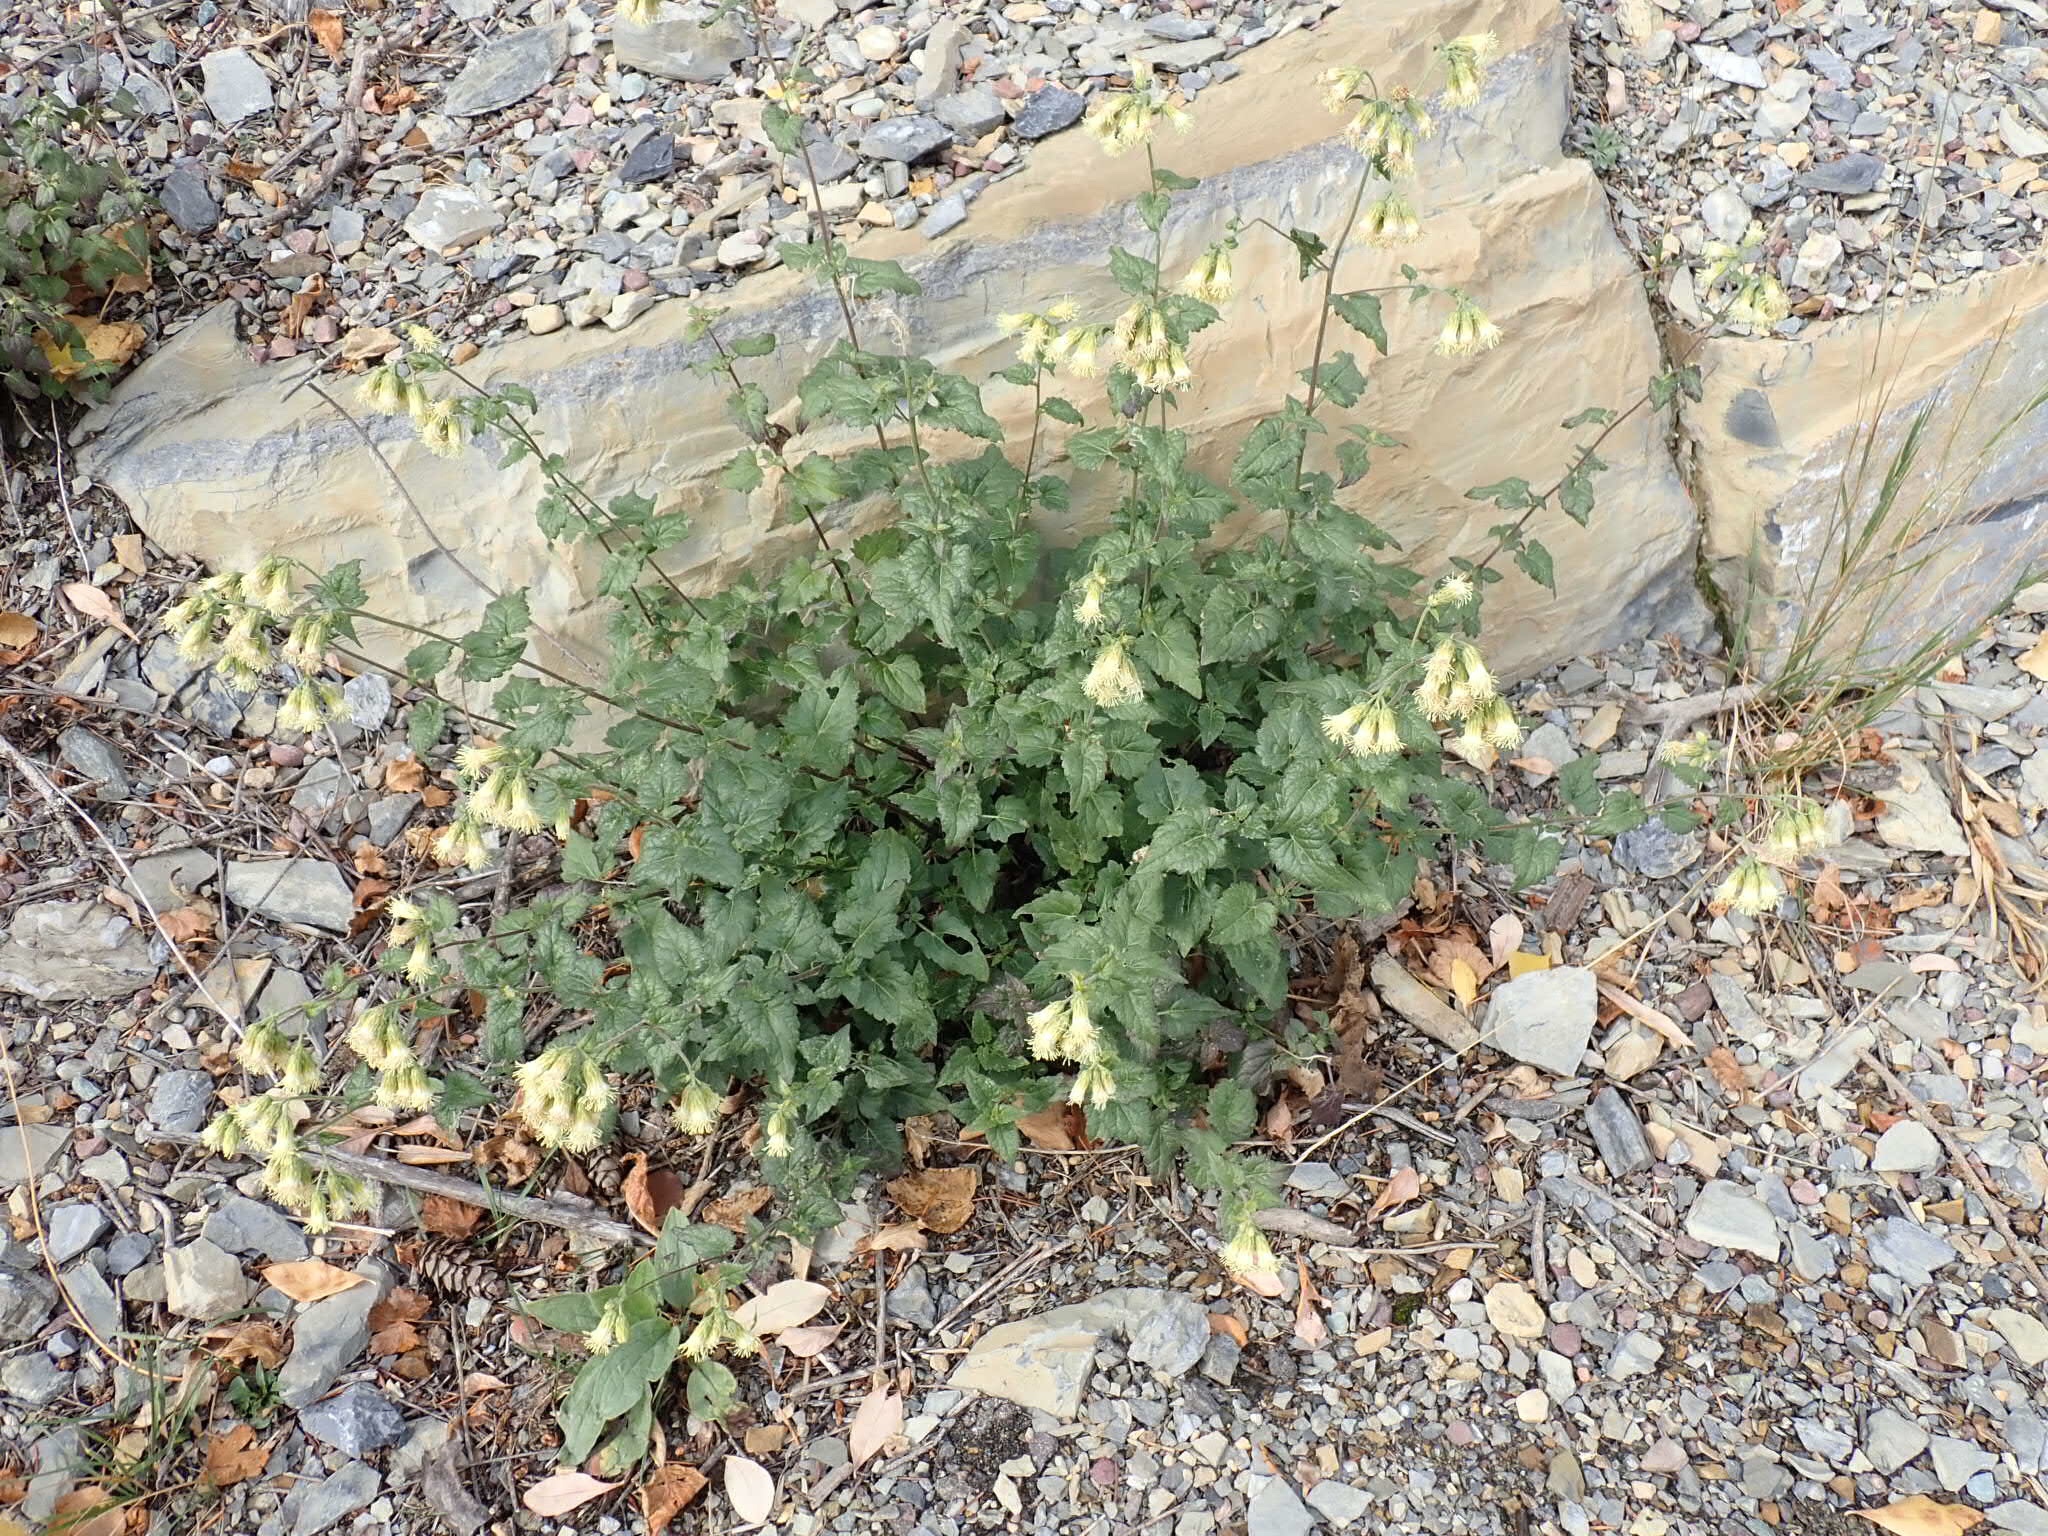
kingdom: Plantae
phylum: Tracheophyta
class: Magnoliopsida
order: Asterales
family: Asteraceae
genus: Brickellia
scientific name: Brickellia grandiflora
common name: Large-flowered brickellia
